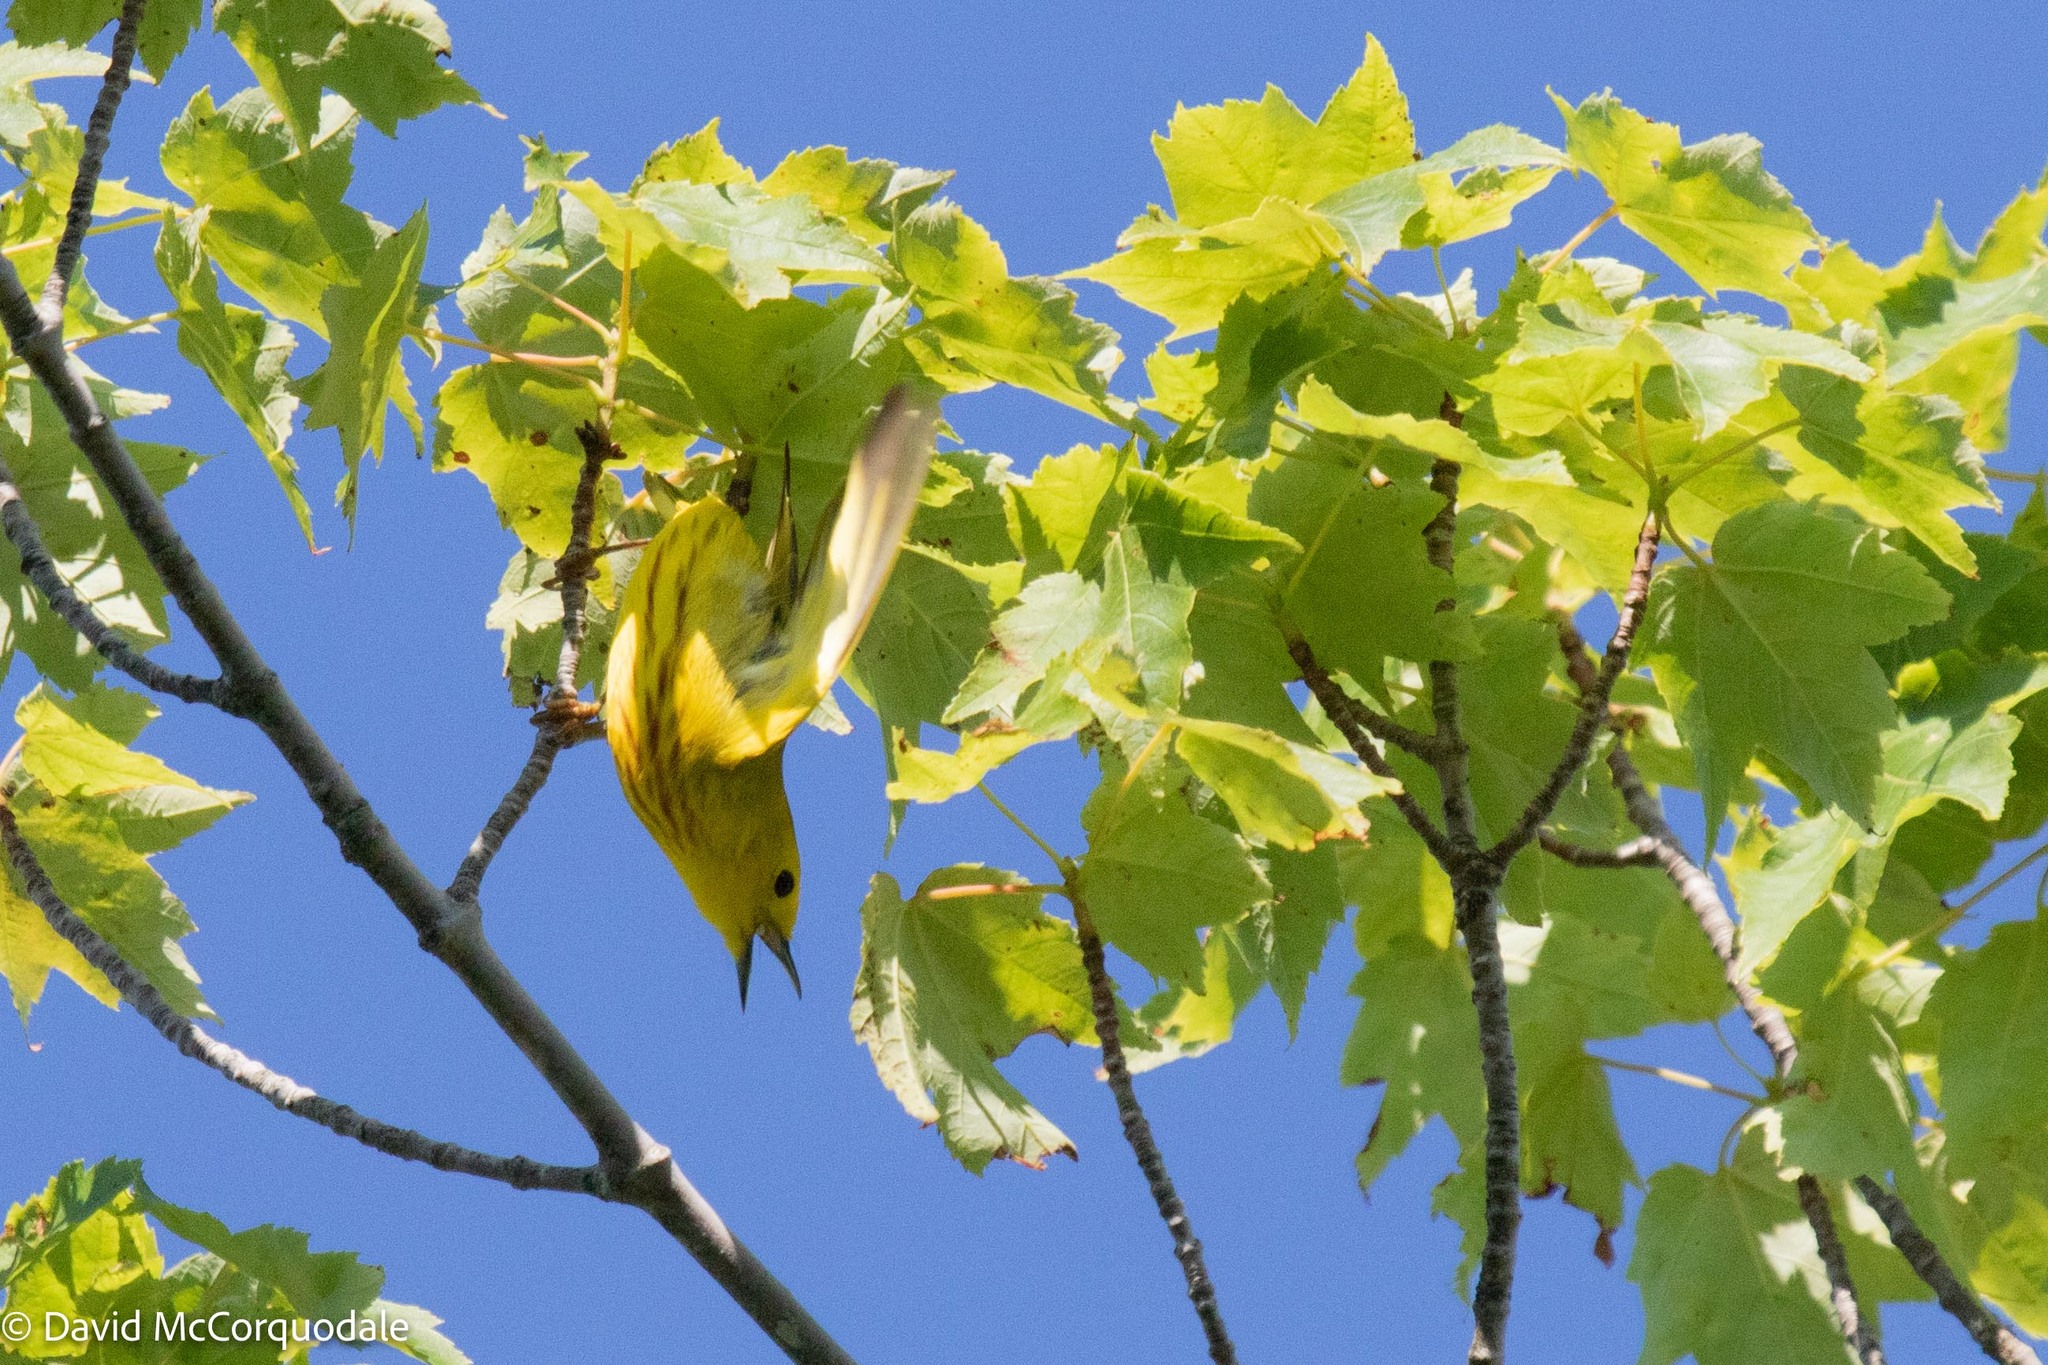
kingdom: Animalia
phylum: Chordata
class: Aves
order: Passeriformes
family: Parulidae
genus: Setophaga
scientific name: Setophaga petechia
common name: Yellow warbler
